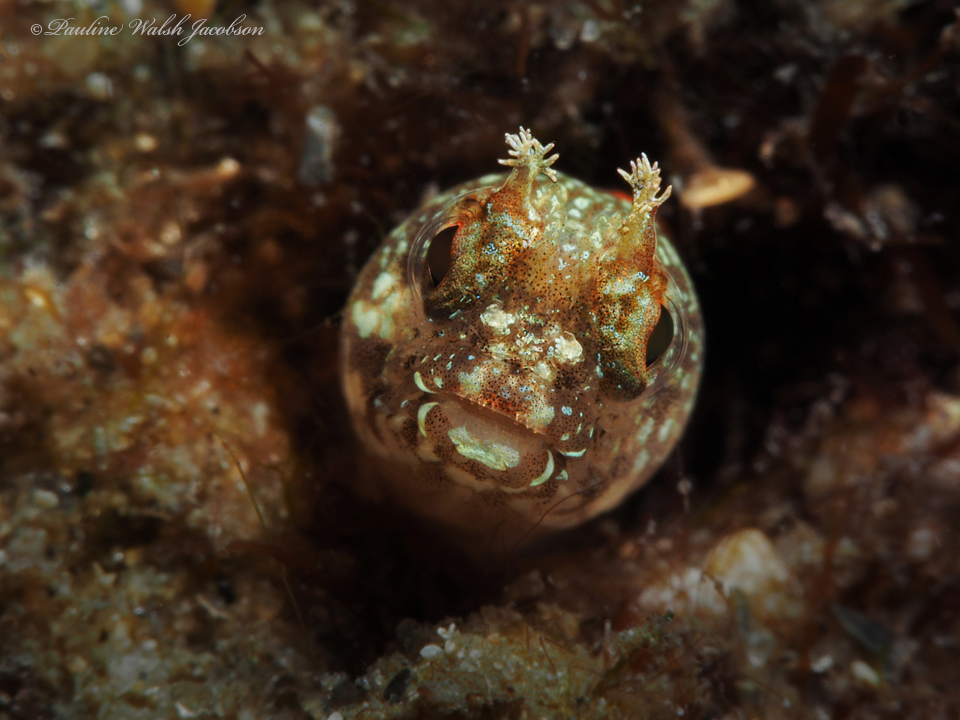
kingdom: Animalia
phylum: Chordata
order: Perciformes
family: Chaenopsidae
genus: Acanthemblemaria
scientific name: Acanthemblemaria chaplini
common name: Papillose blenny
